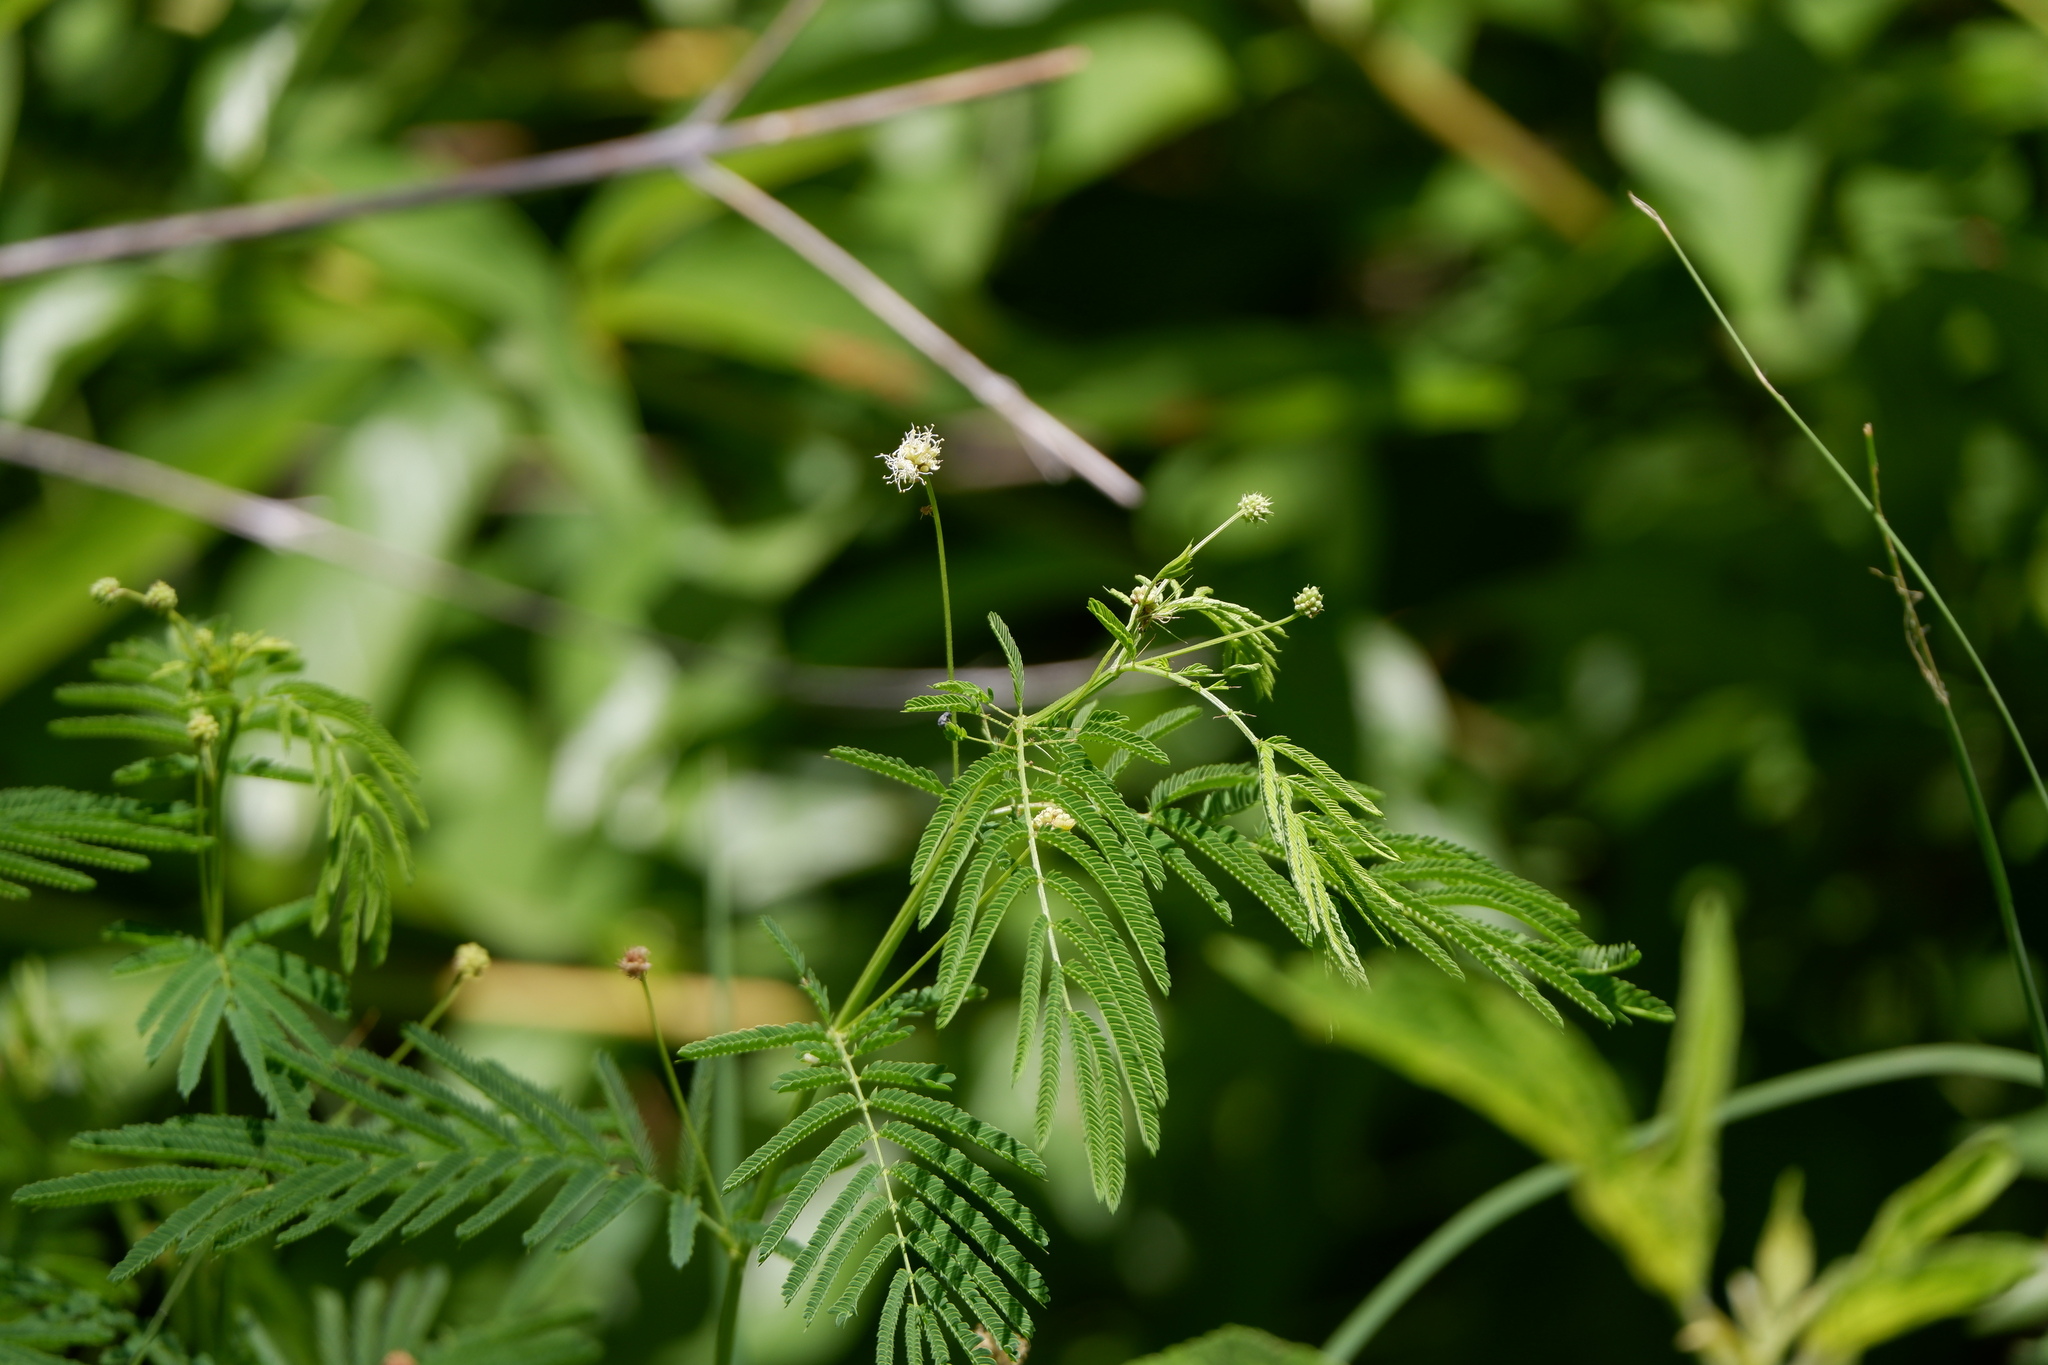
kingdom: Plantae
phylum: Tracheophyta
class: Magnoliopsida
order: Fabales
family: Fabaceae
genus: Desmanthus
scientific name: Desmanthus illinoensis
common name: Illinois bundle-flower
